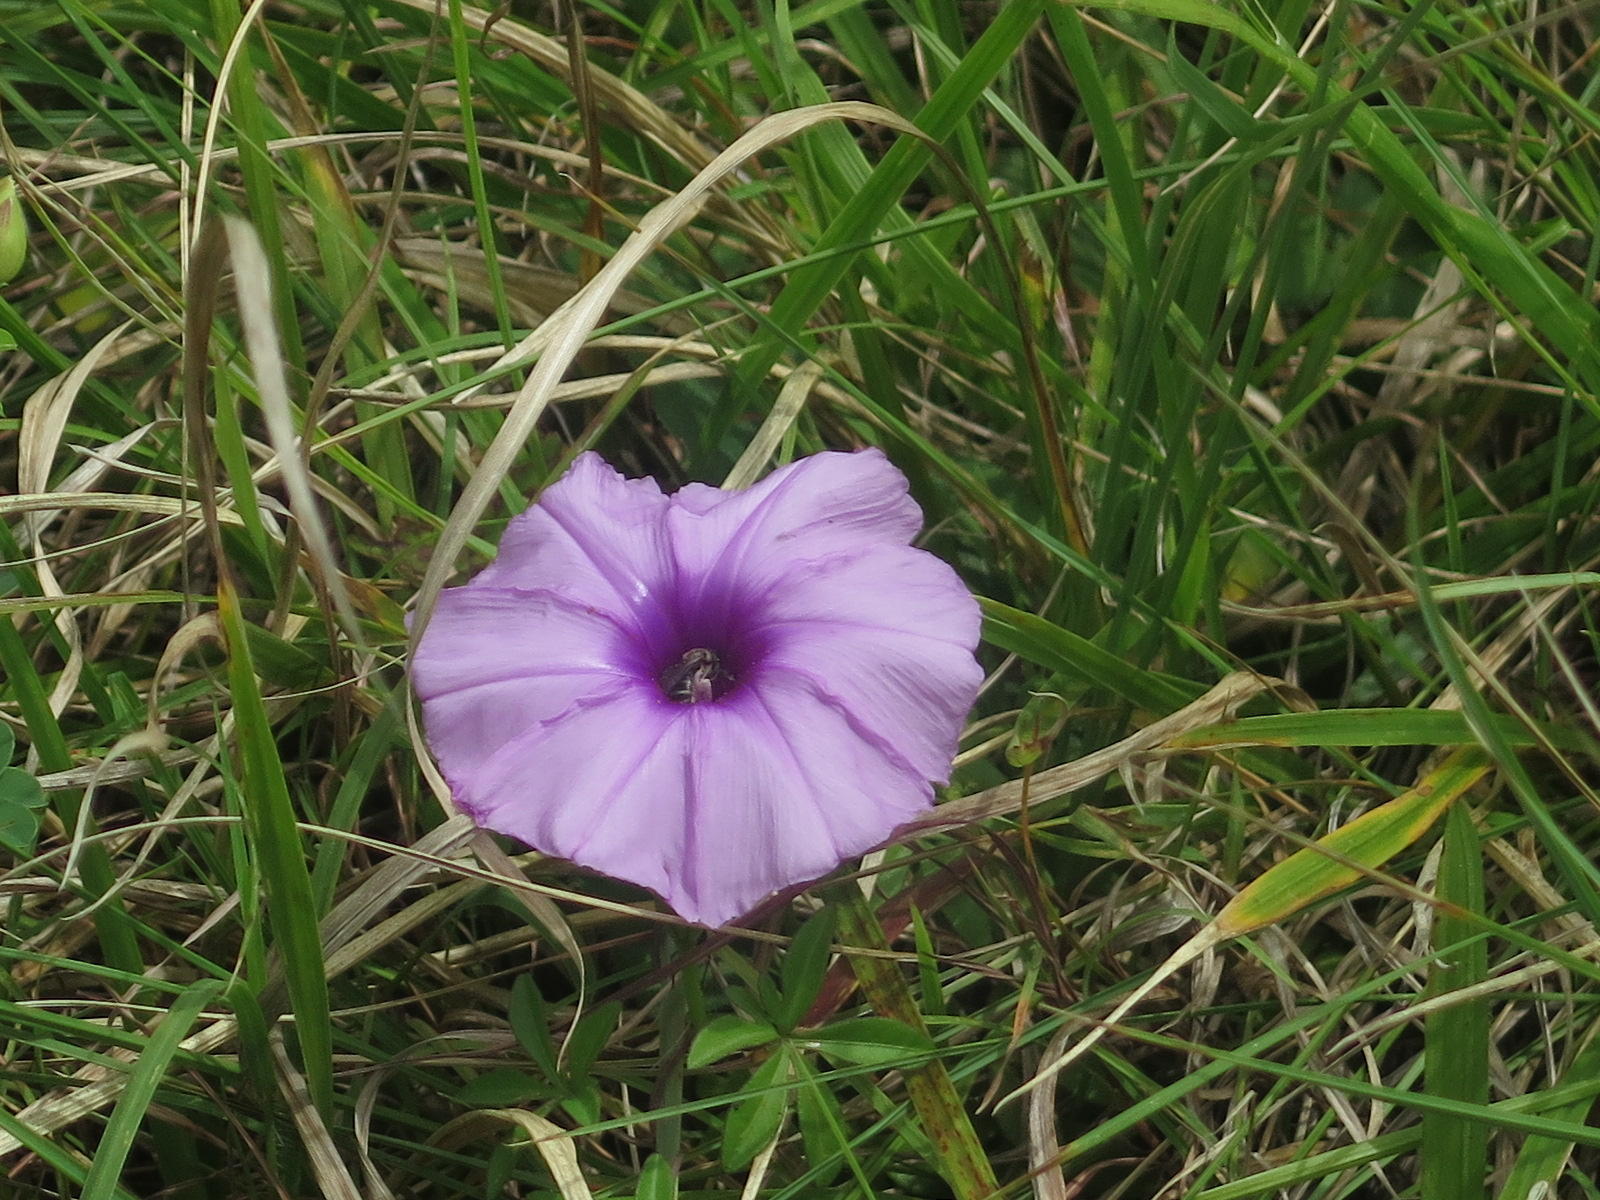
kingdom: Plantae
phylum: Tracheophyta
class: Magnoliopsida
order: Solanales
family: Convolvulaceae
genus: Ipomoea
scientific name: Ipomoea cairica
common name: Mile a minute vine
